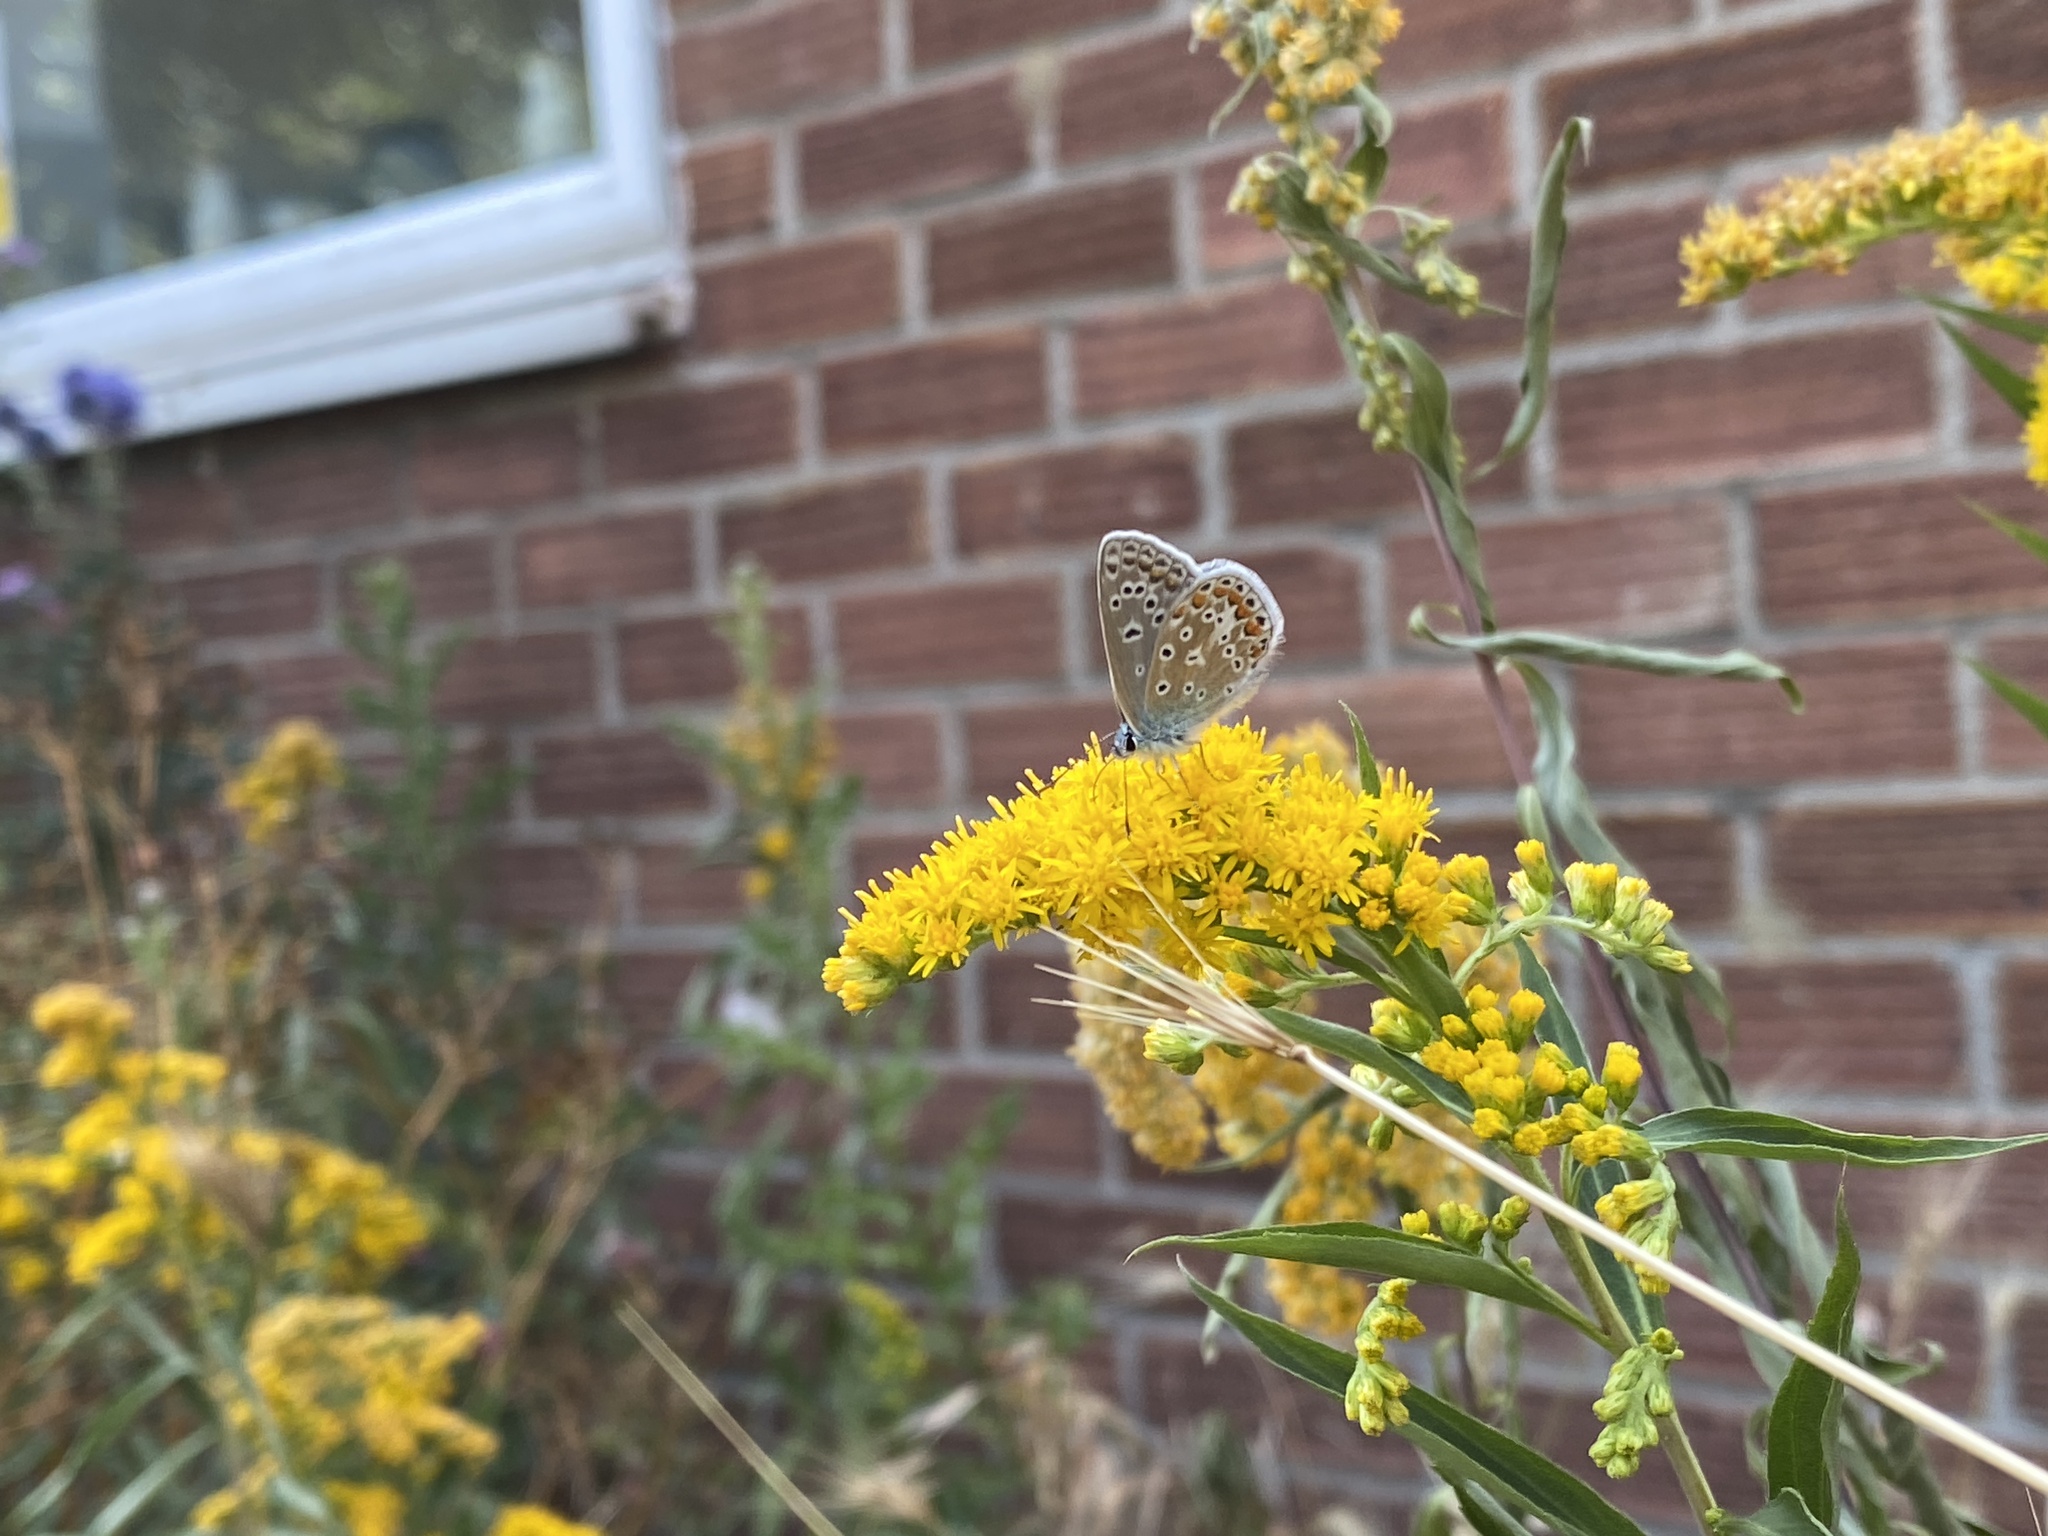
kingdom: Animalia
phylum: Arthropoda
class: Insecta
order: Lepidoptera
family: Lycaenidae
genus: Polyommatus
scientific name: Polyommatus icarus
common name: Common blue
